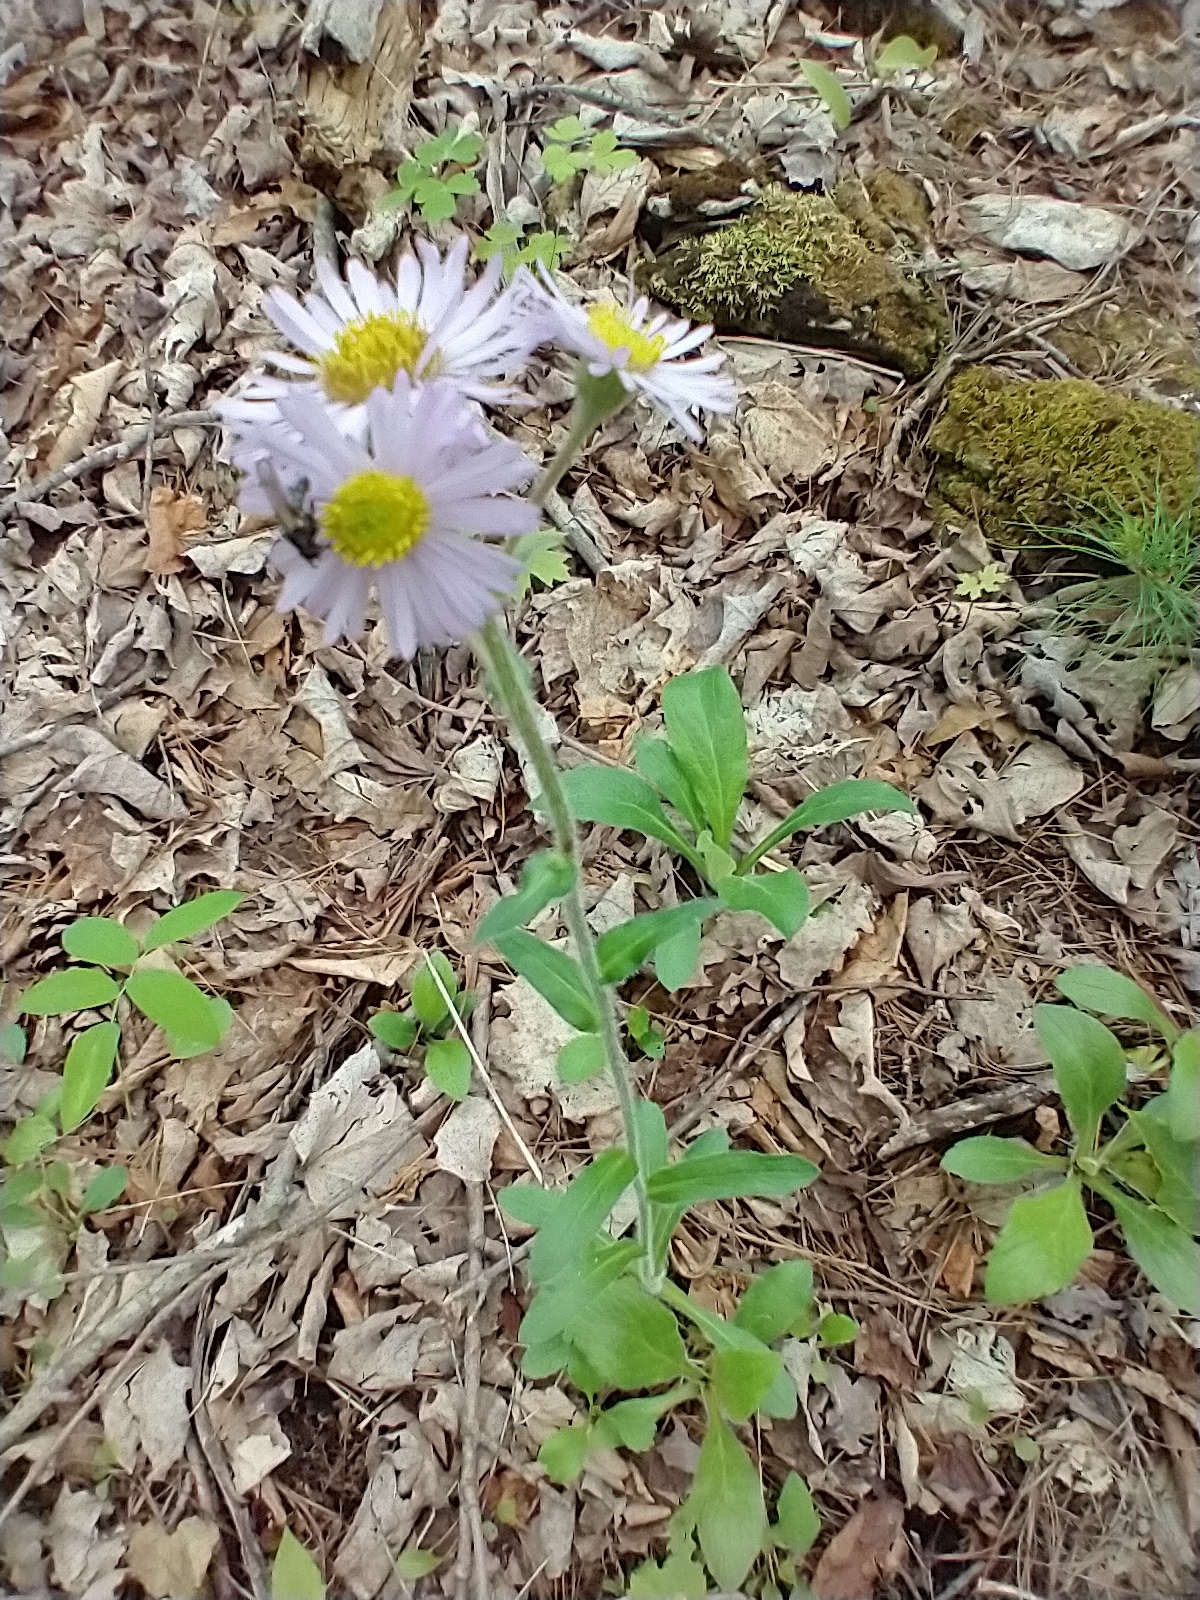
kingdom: Plantae
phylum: Tracheophyta
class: Magnoliopsida
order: Asterales
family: Asteraceae
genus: Erigeron
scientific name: Erigeron pulchellus
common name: Hairy fleabane
